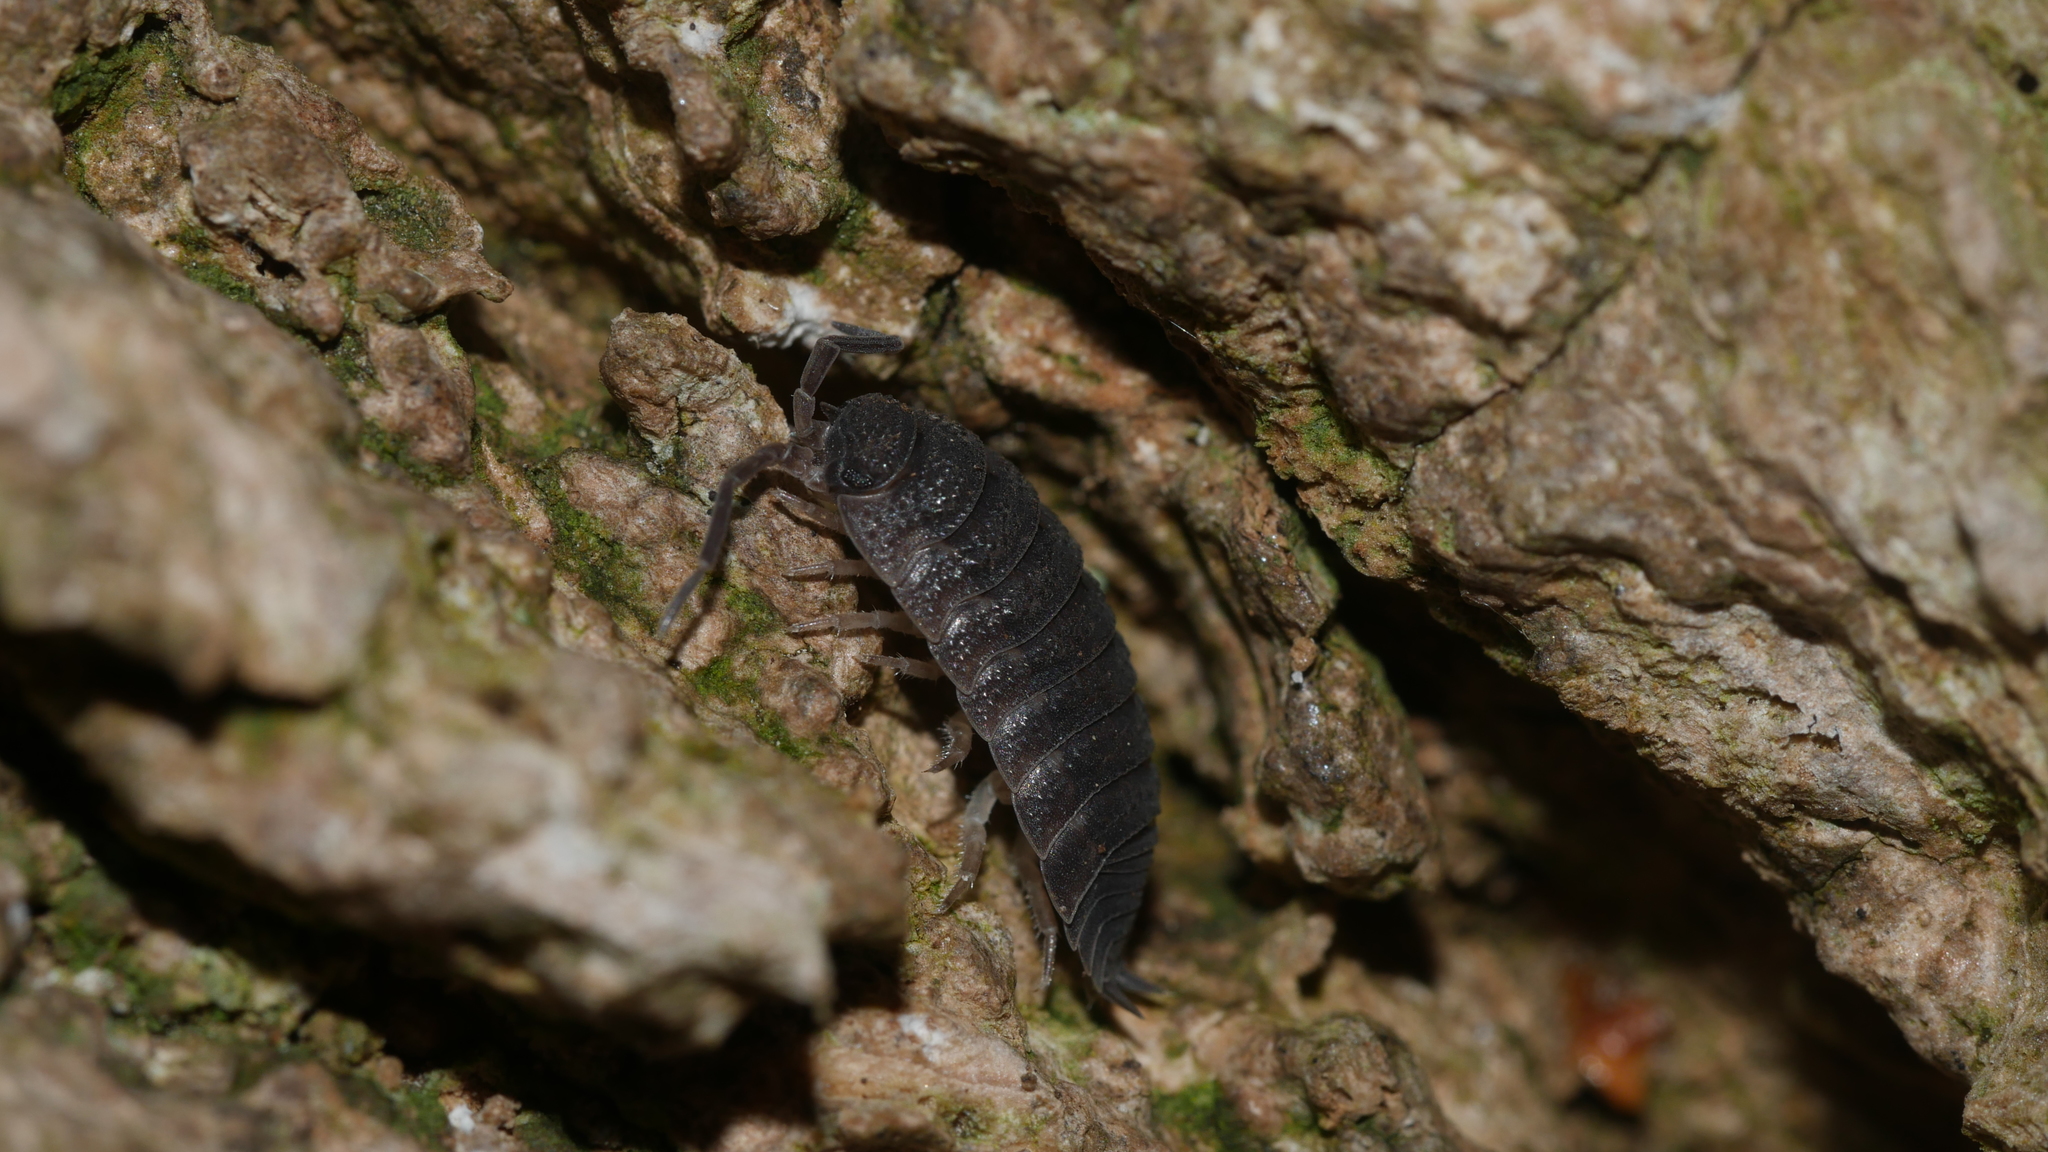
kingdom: Animalia
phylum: Arthropoda
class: Malacostraca
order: Isopoda
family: Porcellionidae
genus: Porcellio
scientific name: Porcellio scaber
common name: Common rough woodlouse
